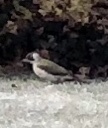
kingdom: Animalia
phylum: Chordata
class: Aves
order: Piciformes
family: Picidae
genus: Picus
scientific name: Picus viridis
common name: European green woodpecker
